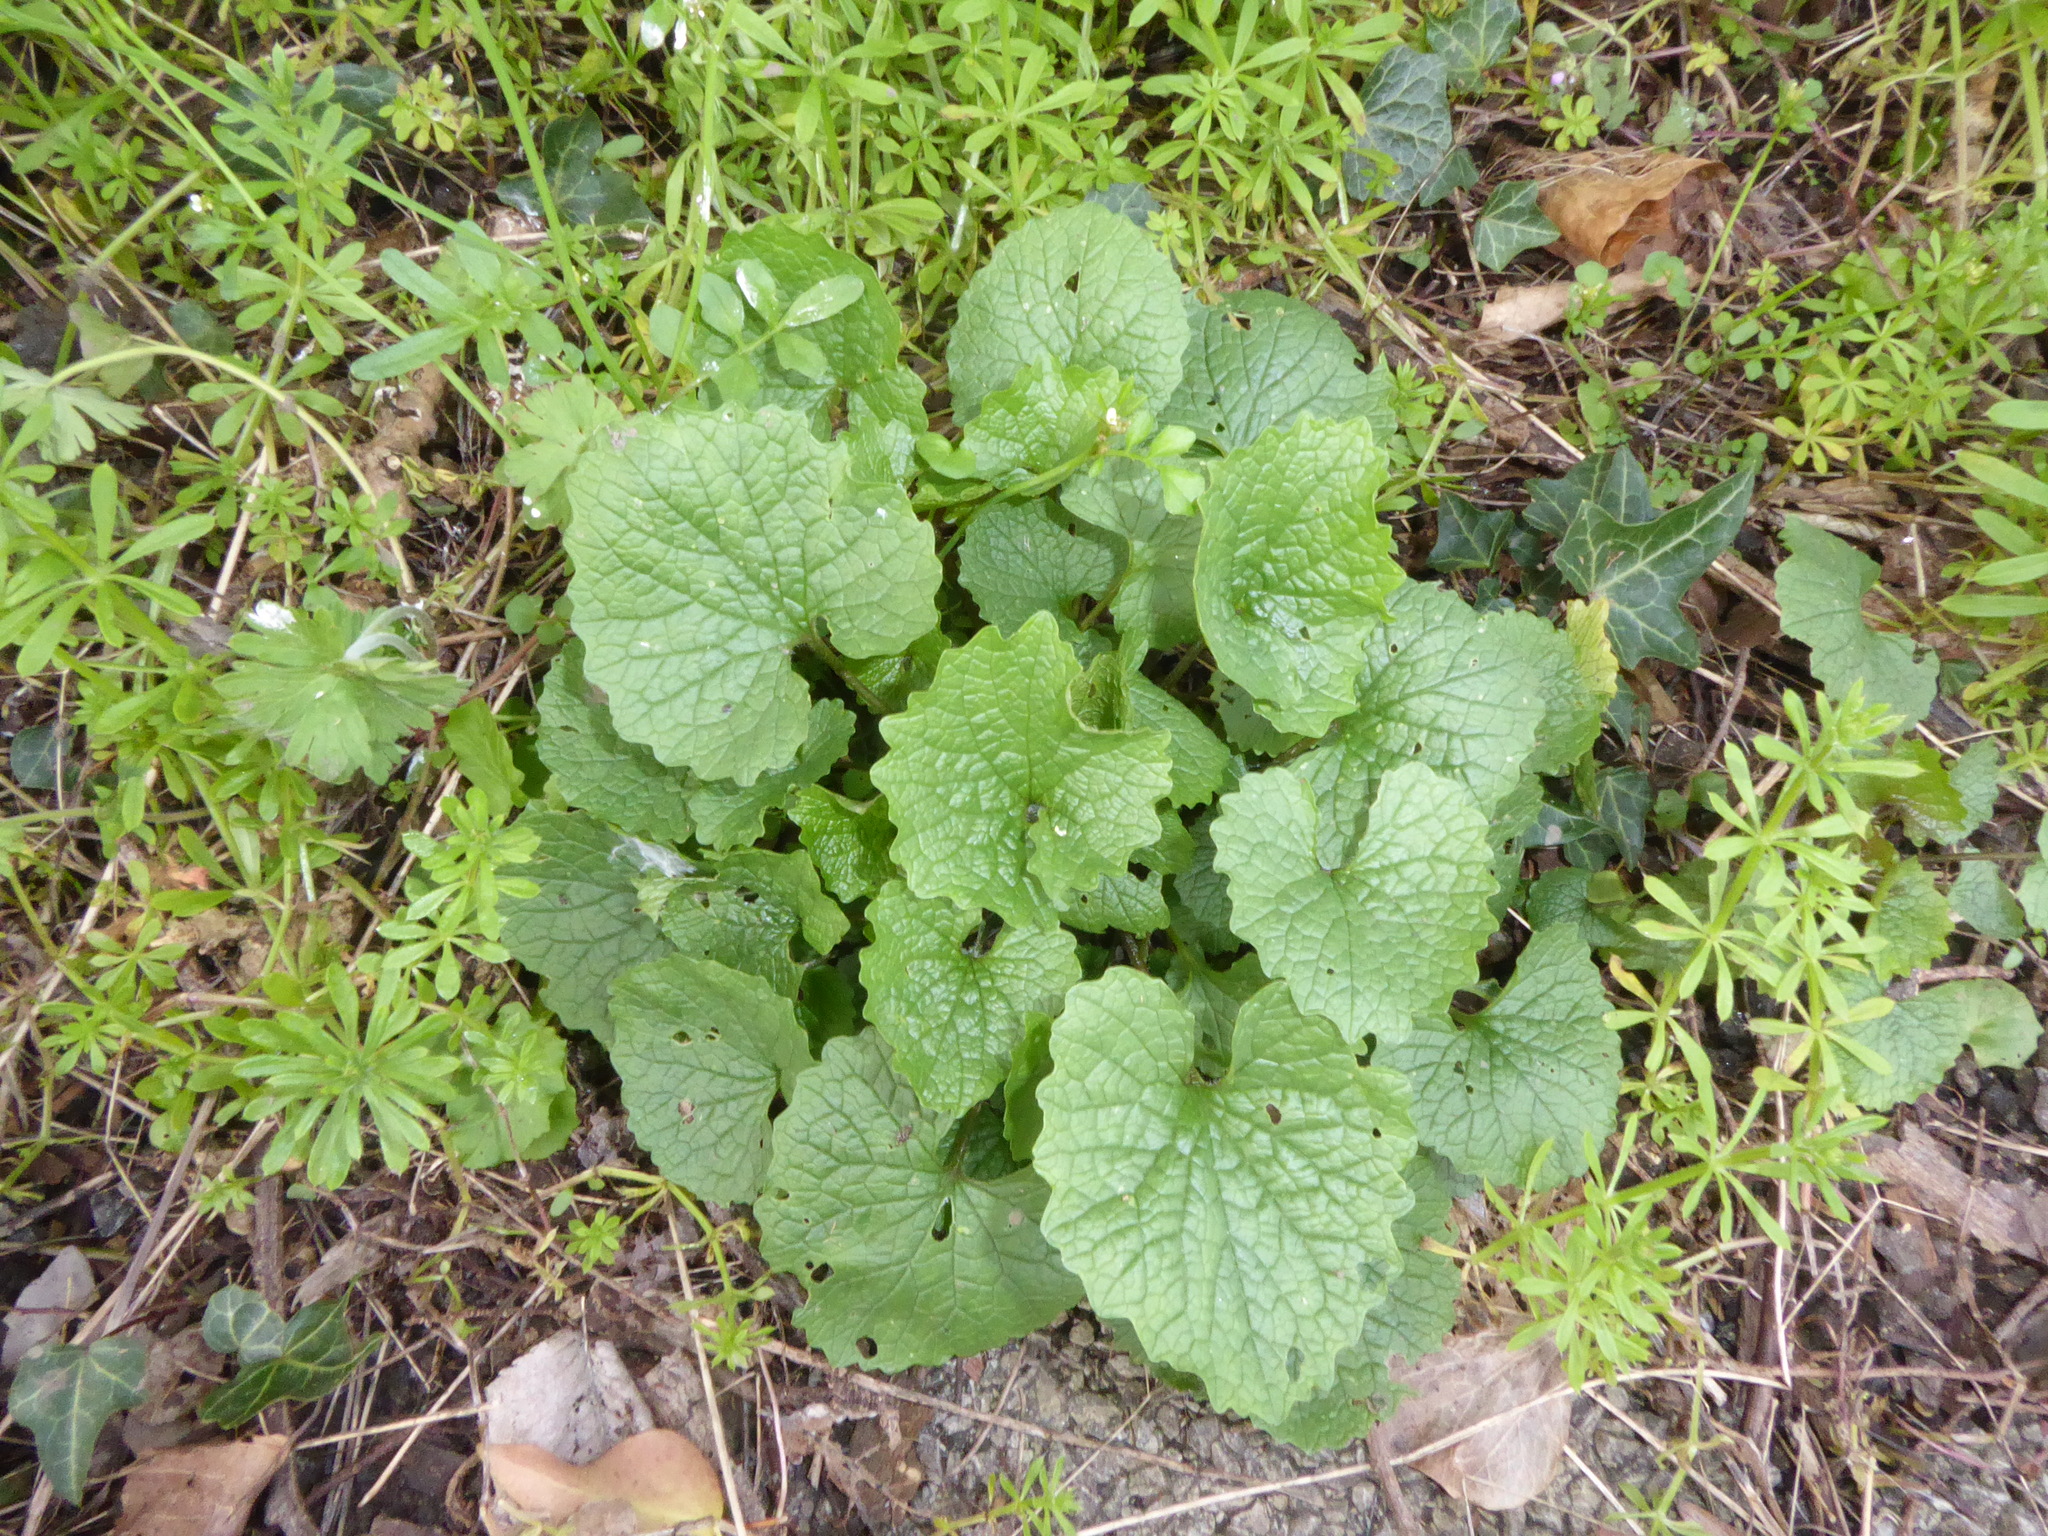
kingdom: Plantae
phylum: Tracheophyta
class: Magnoliopsida
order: Brassicales
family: Brassicaceae
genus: Alliaria
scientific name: Alliaria petiolata
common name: Garlic mustard
